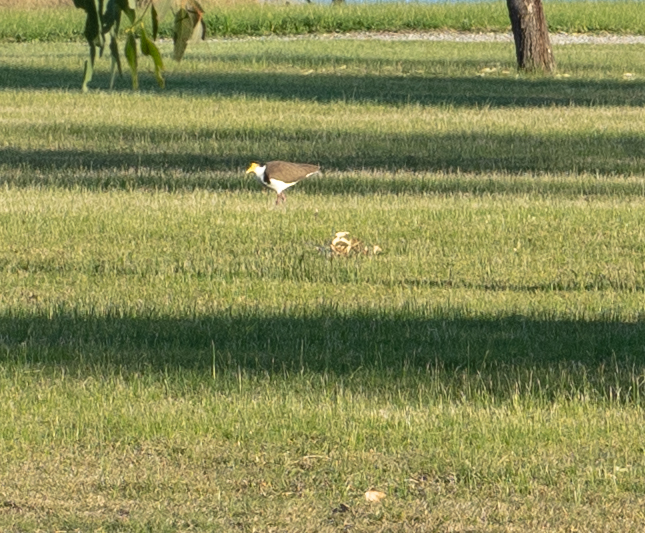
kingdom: Animalia
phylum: Chordata
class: Aves
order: Charadriiformes
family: Charadriidae
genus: Vanellus
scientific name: Vanellus miles
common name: Masked lapwing
